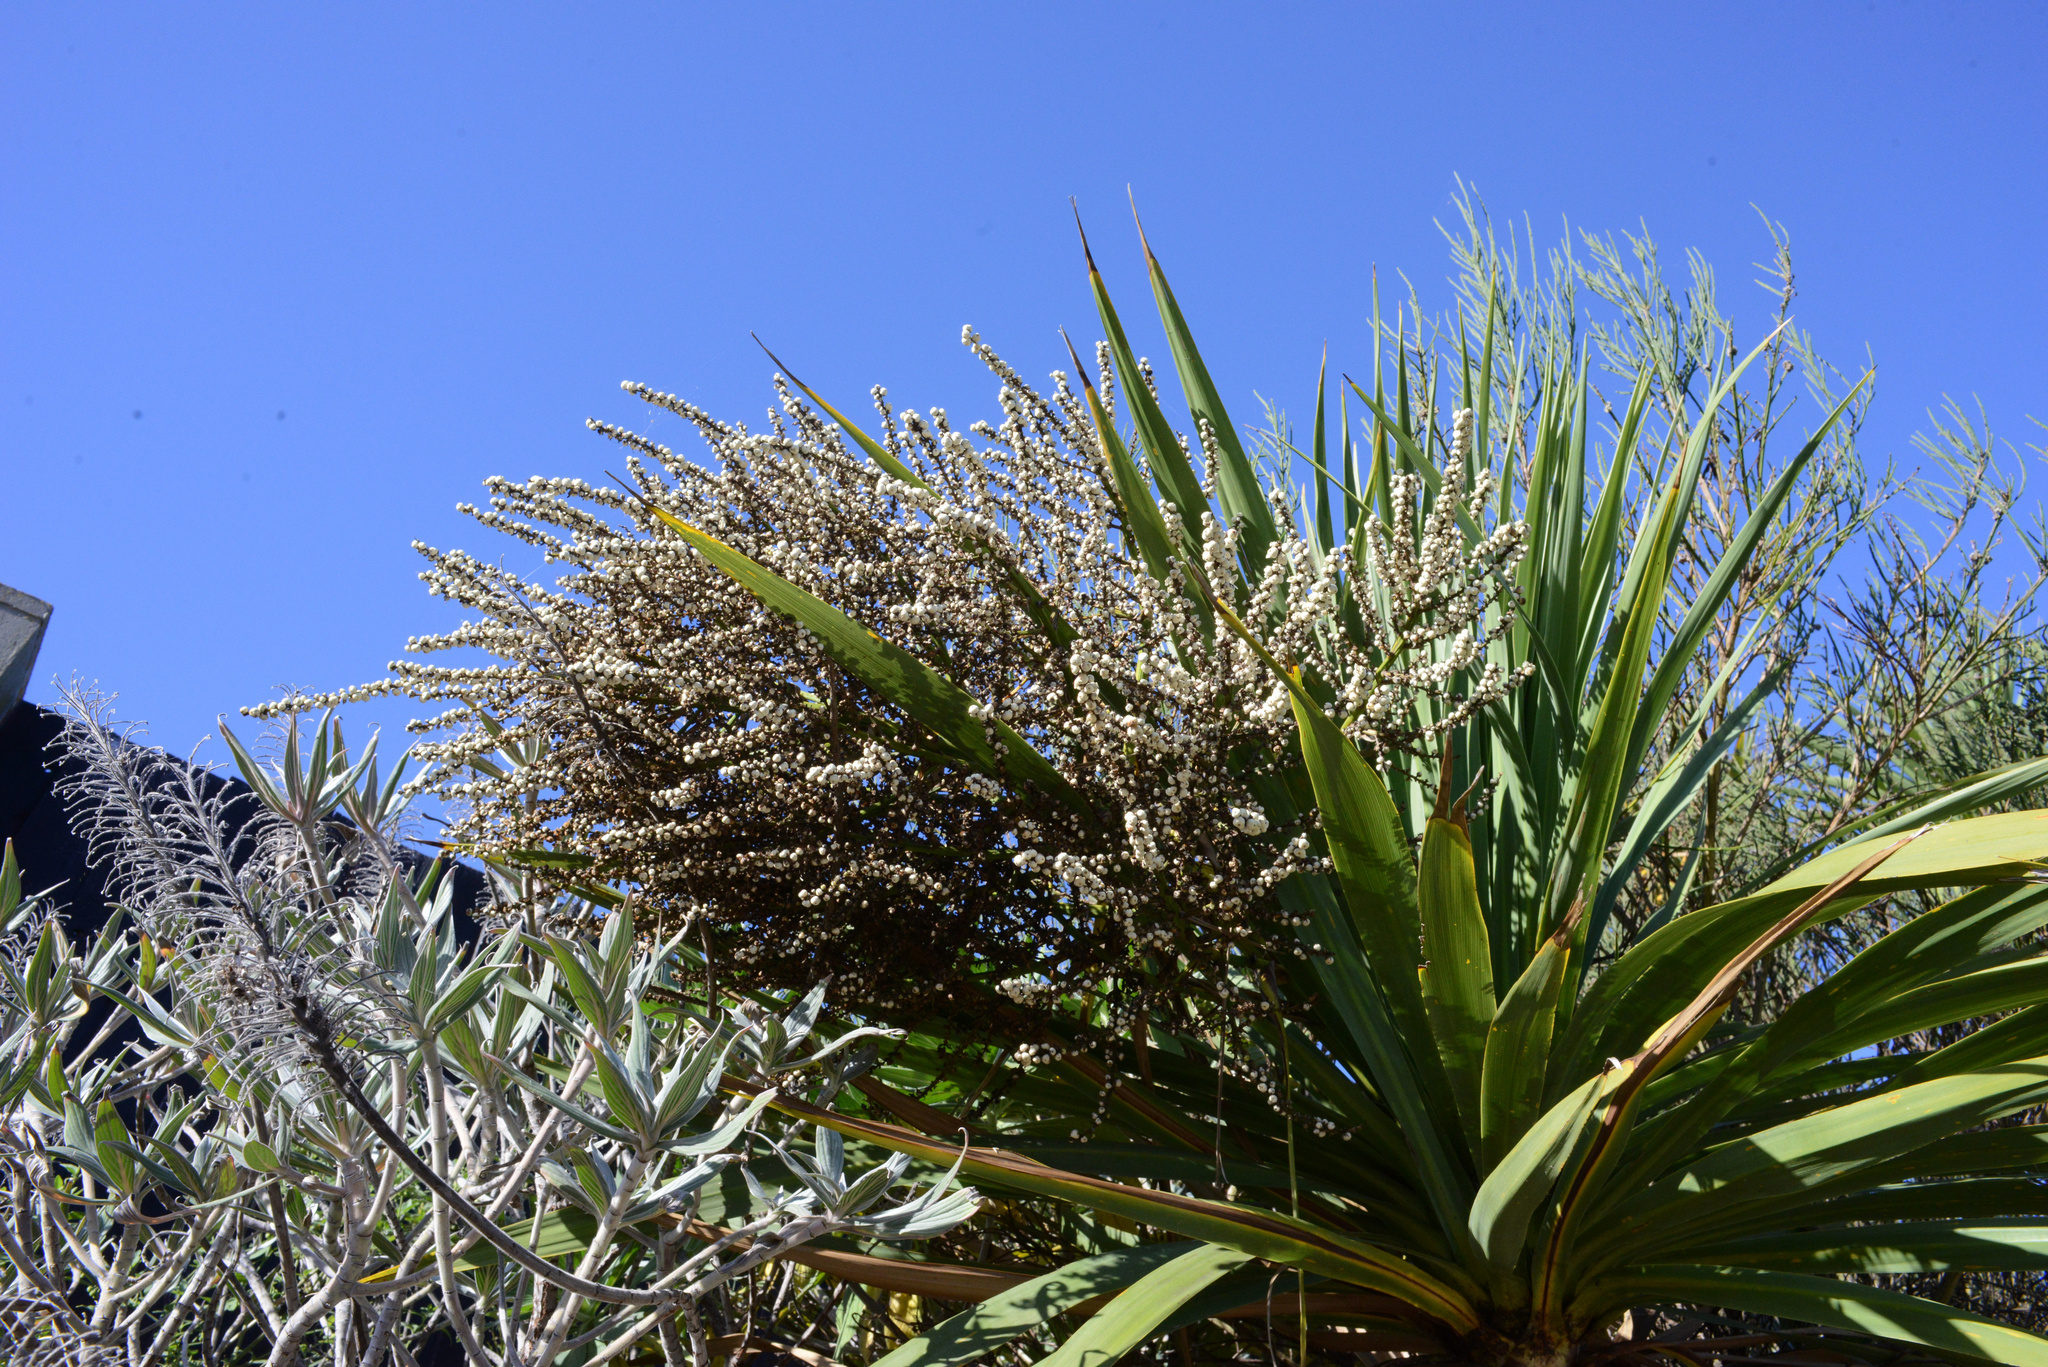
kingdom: Plantae
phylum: Tracheophyta
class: Liliopsida
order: Asparagales
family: Asparagaceae
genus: Cordyline
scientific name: Cordyline australis
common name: Cabbage-palm
